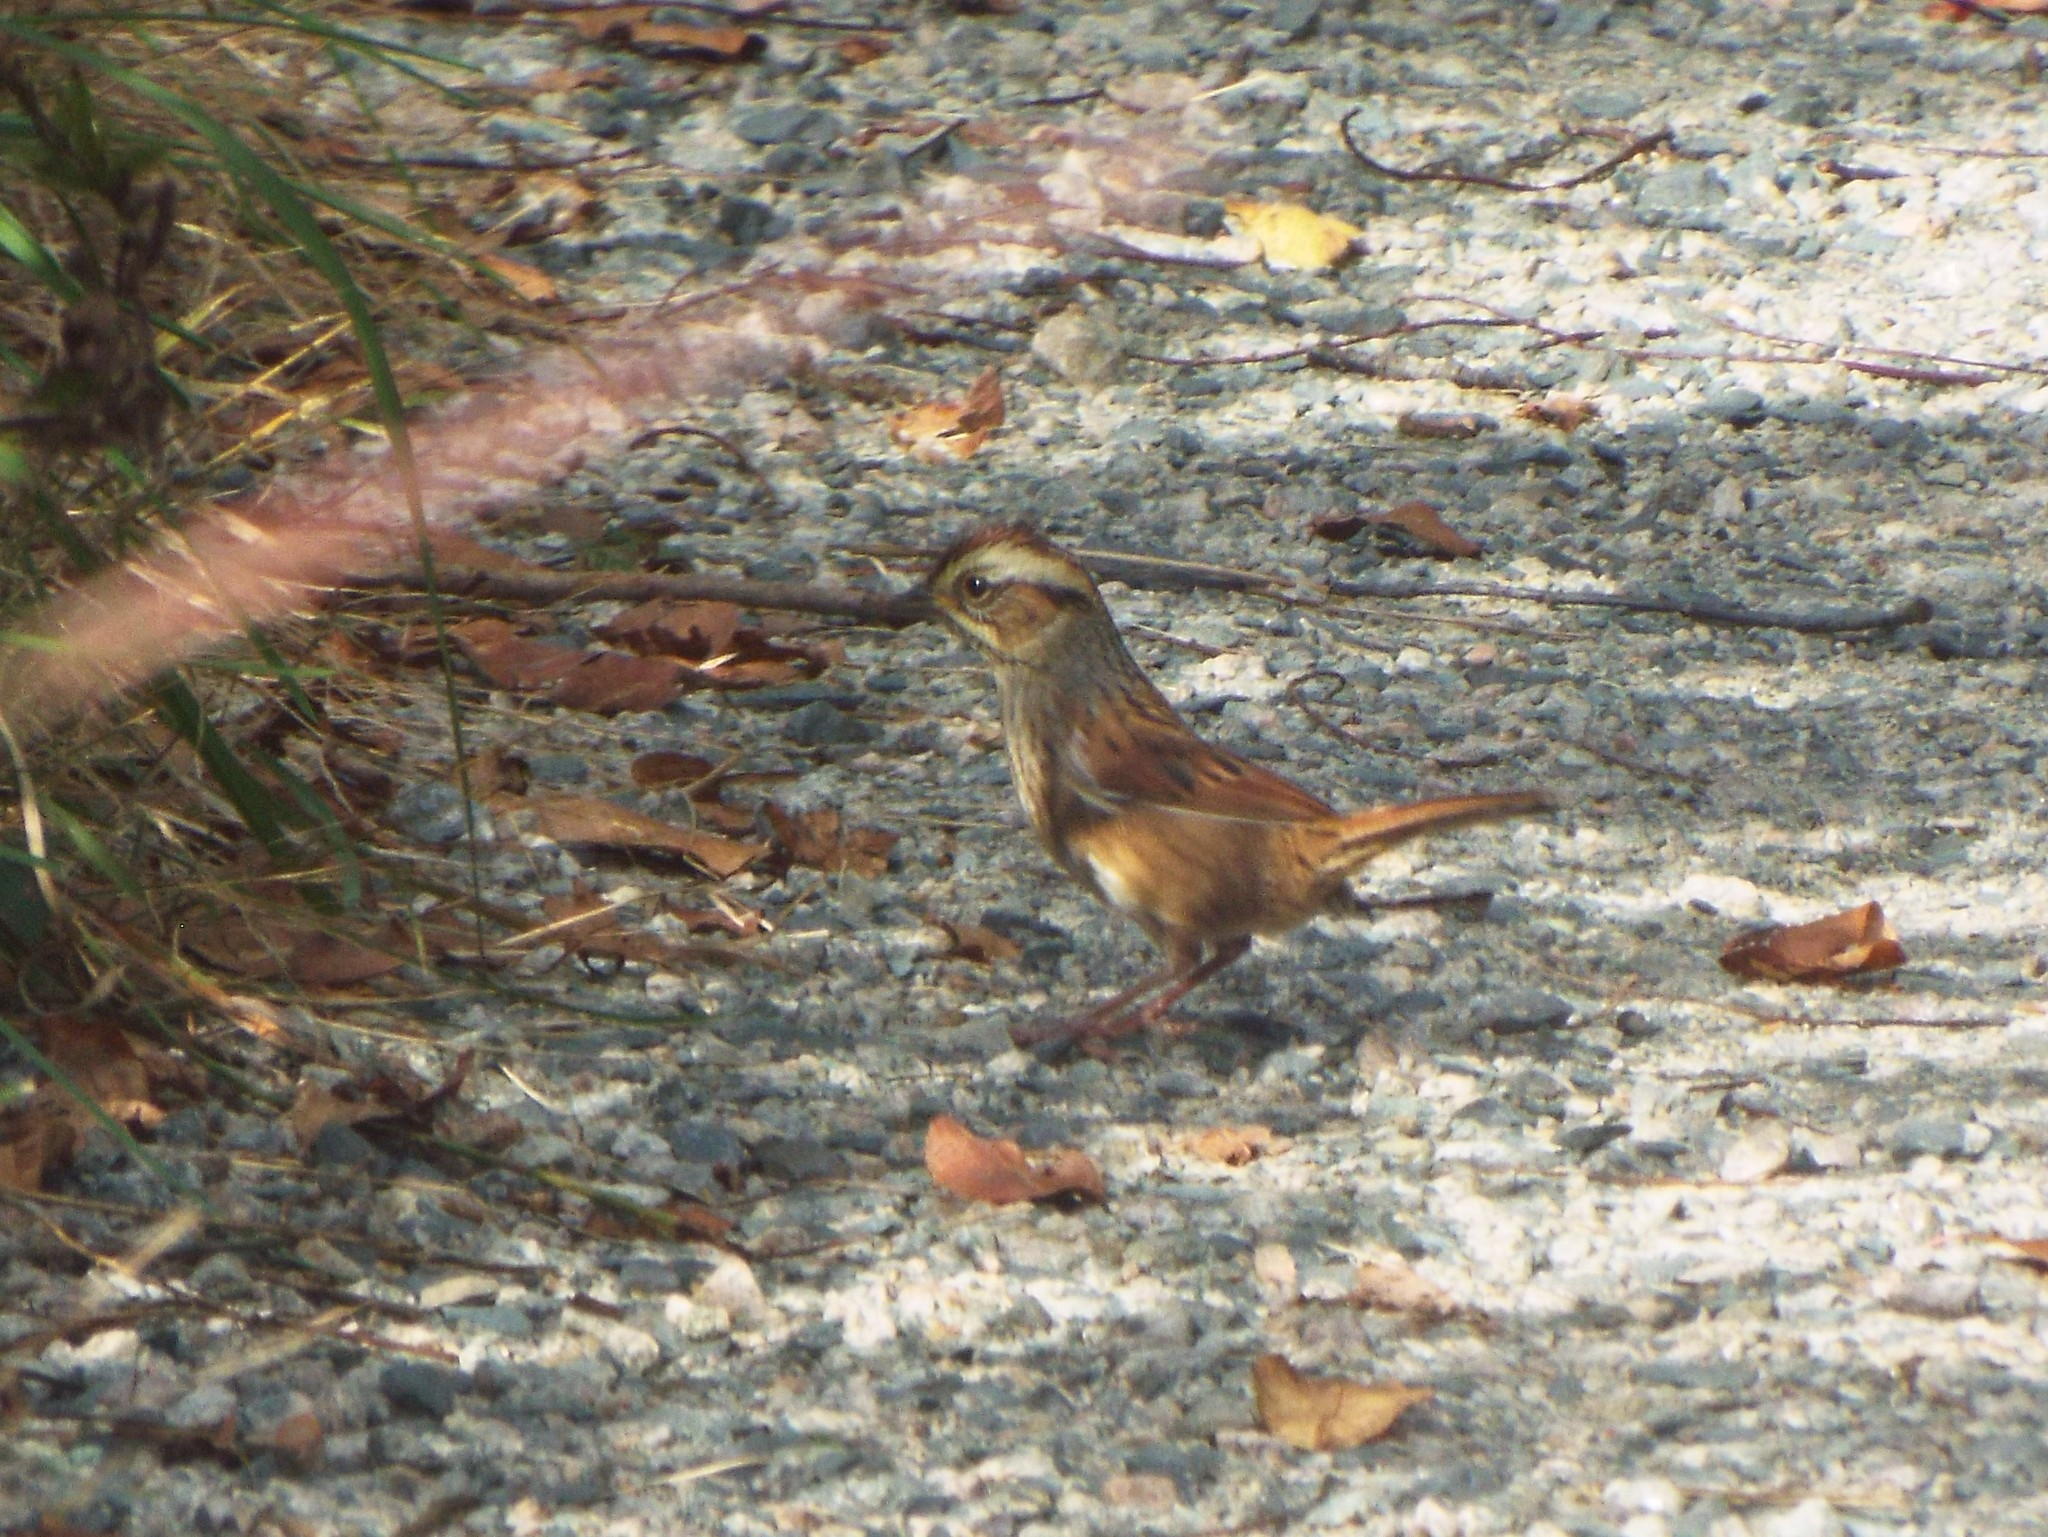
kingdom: Animalia
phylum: Chordata
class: Aves
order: Passeriformes
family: Passerellidae
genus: Melospiza
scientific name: Melospiza georgiana
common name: Swamp sparrow
